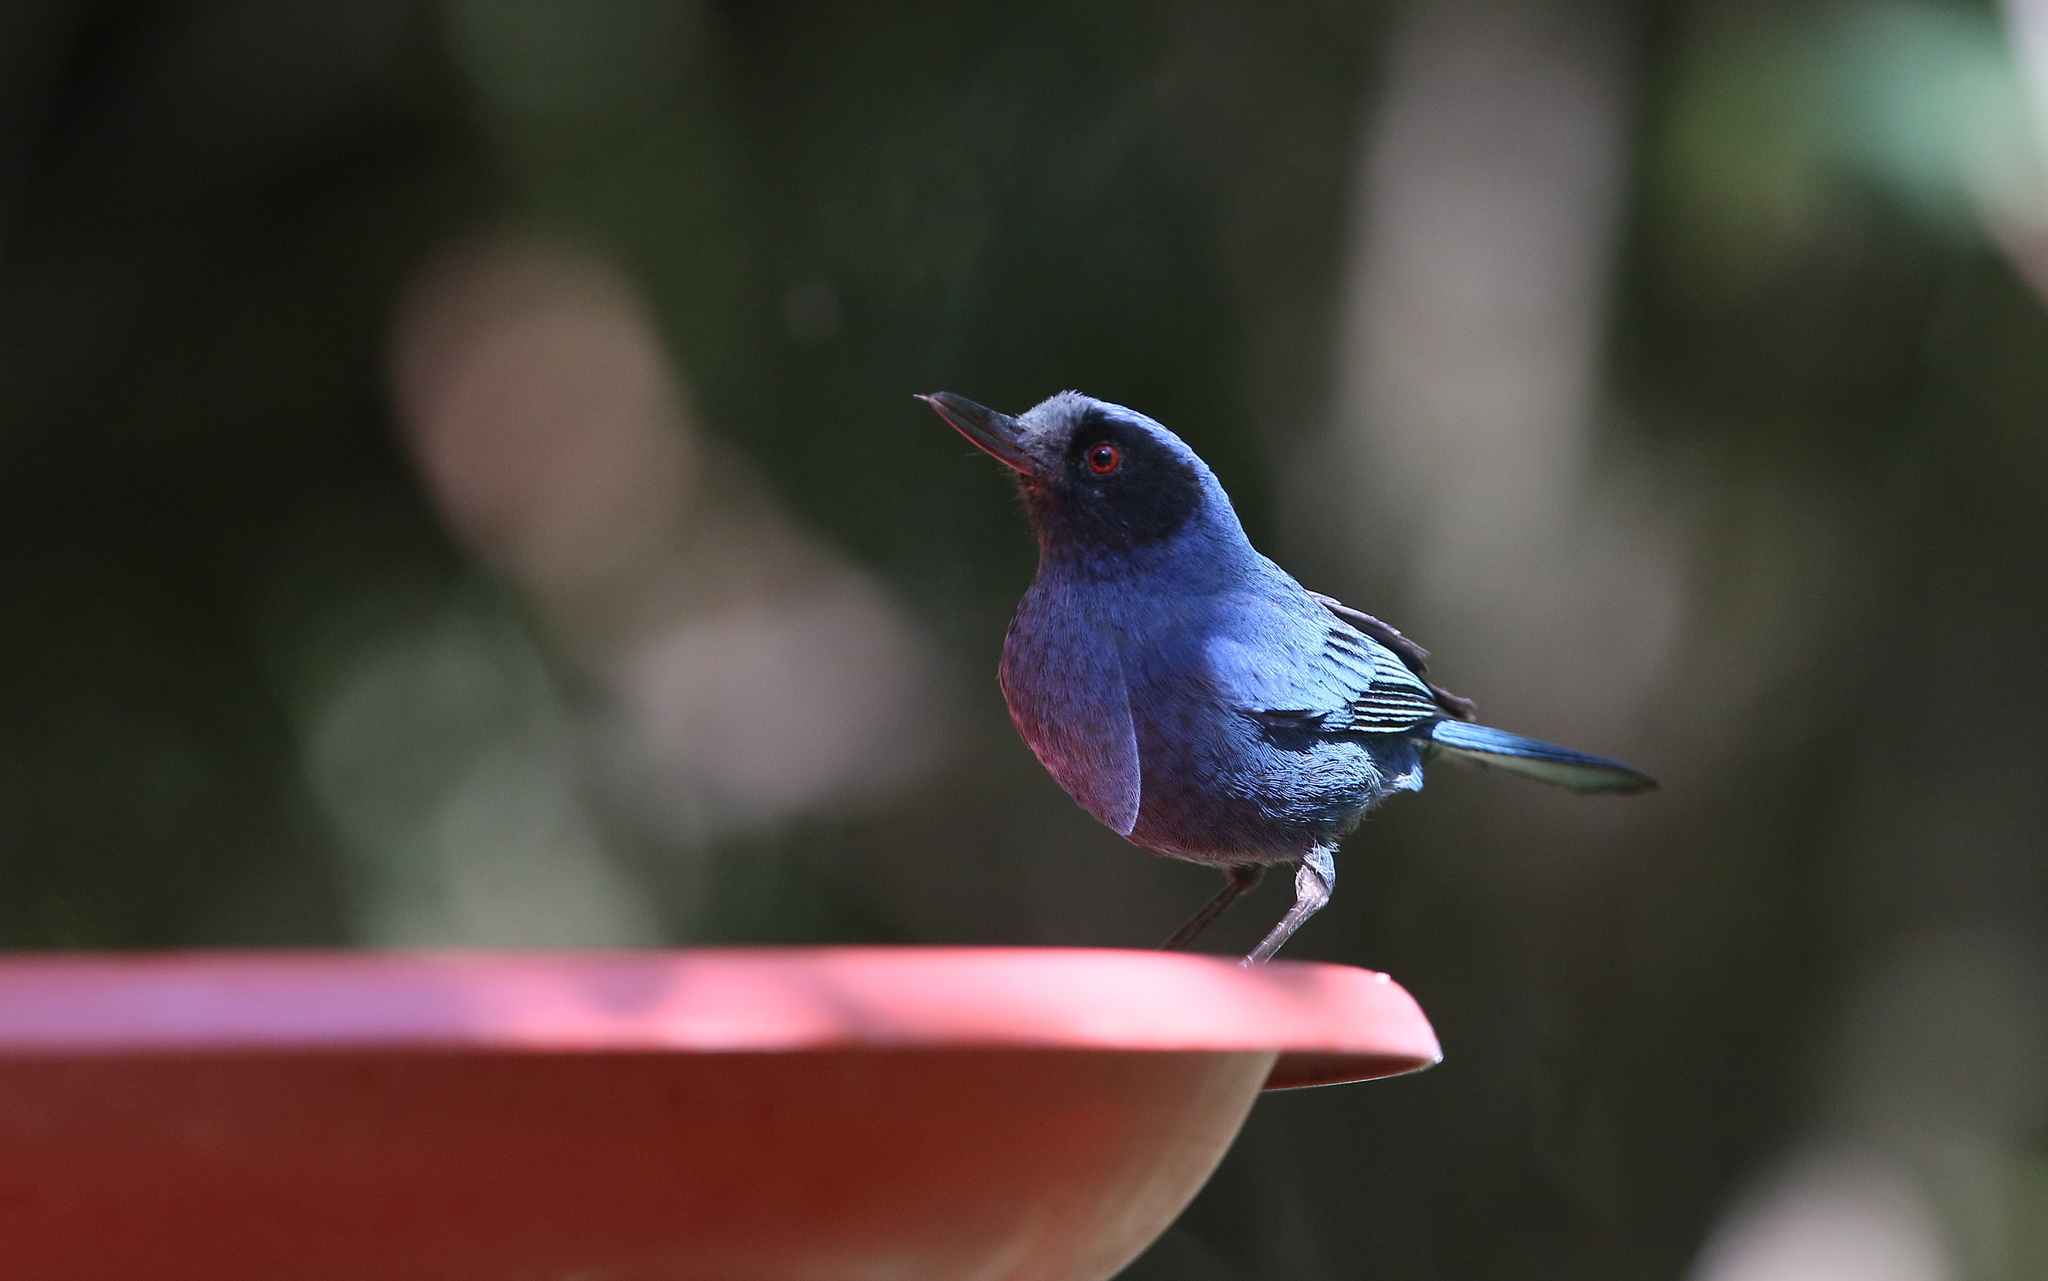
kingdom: Animalia
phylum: Chordata
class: Aves
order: Passeriformes
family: Thraupidae
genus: Diglossa
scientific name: Diglossa cyanea
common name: Masked flowerpiercer
